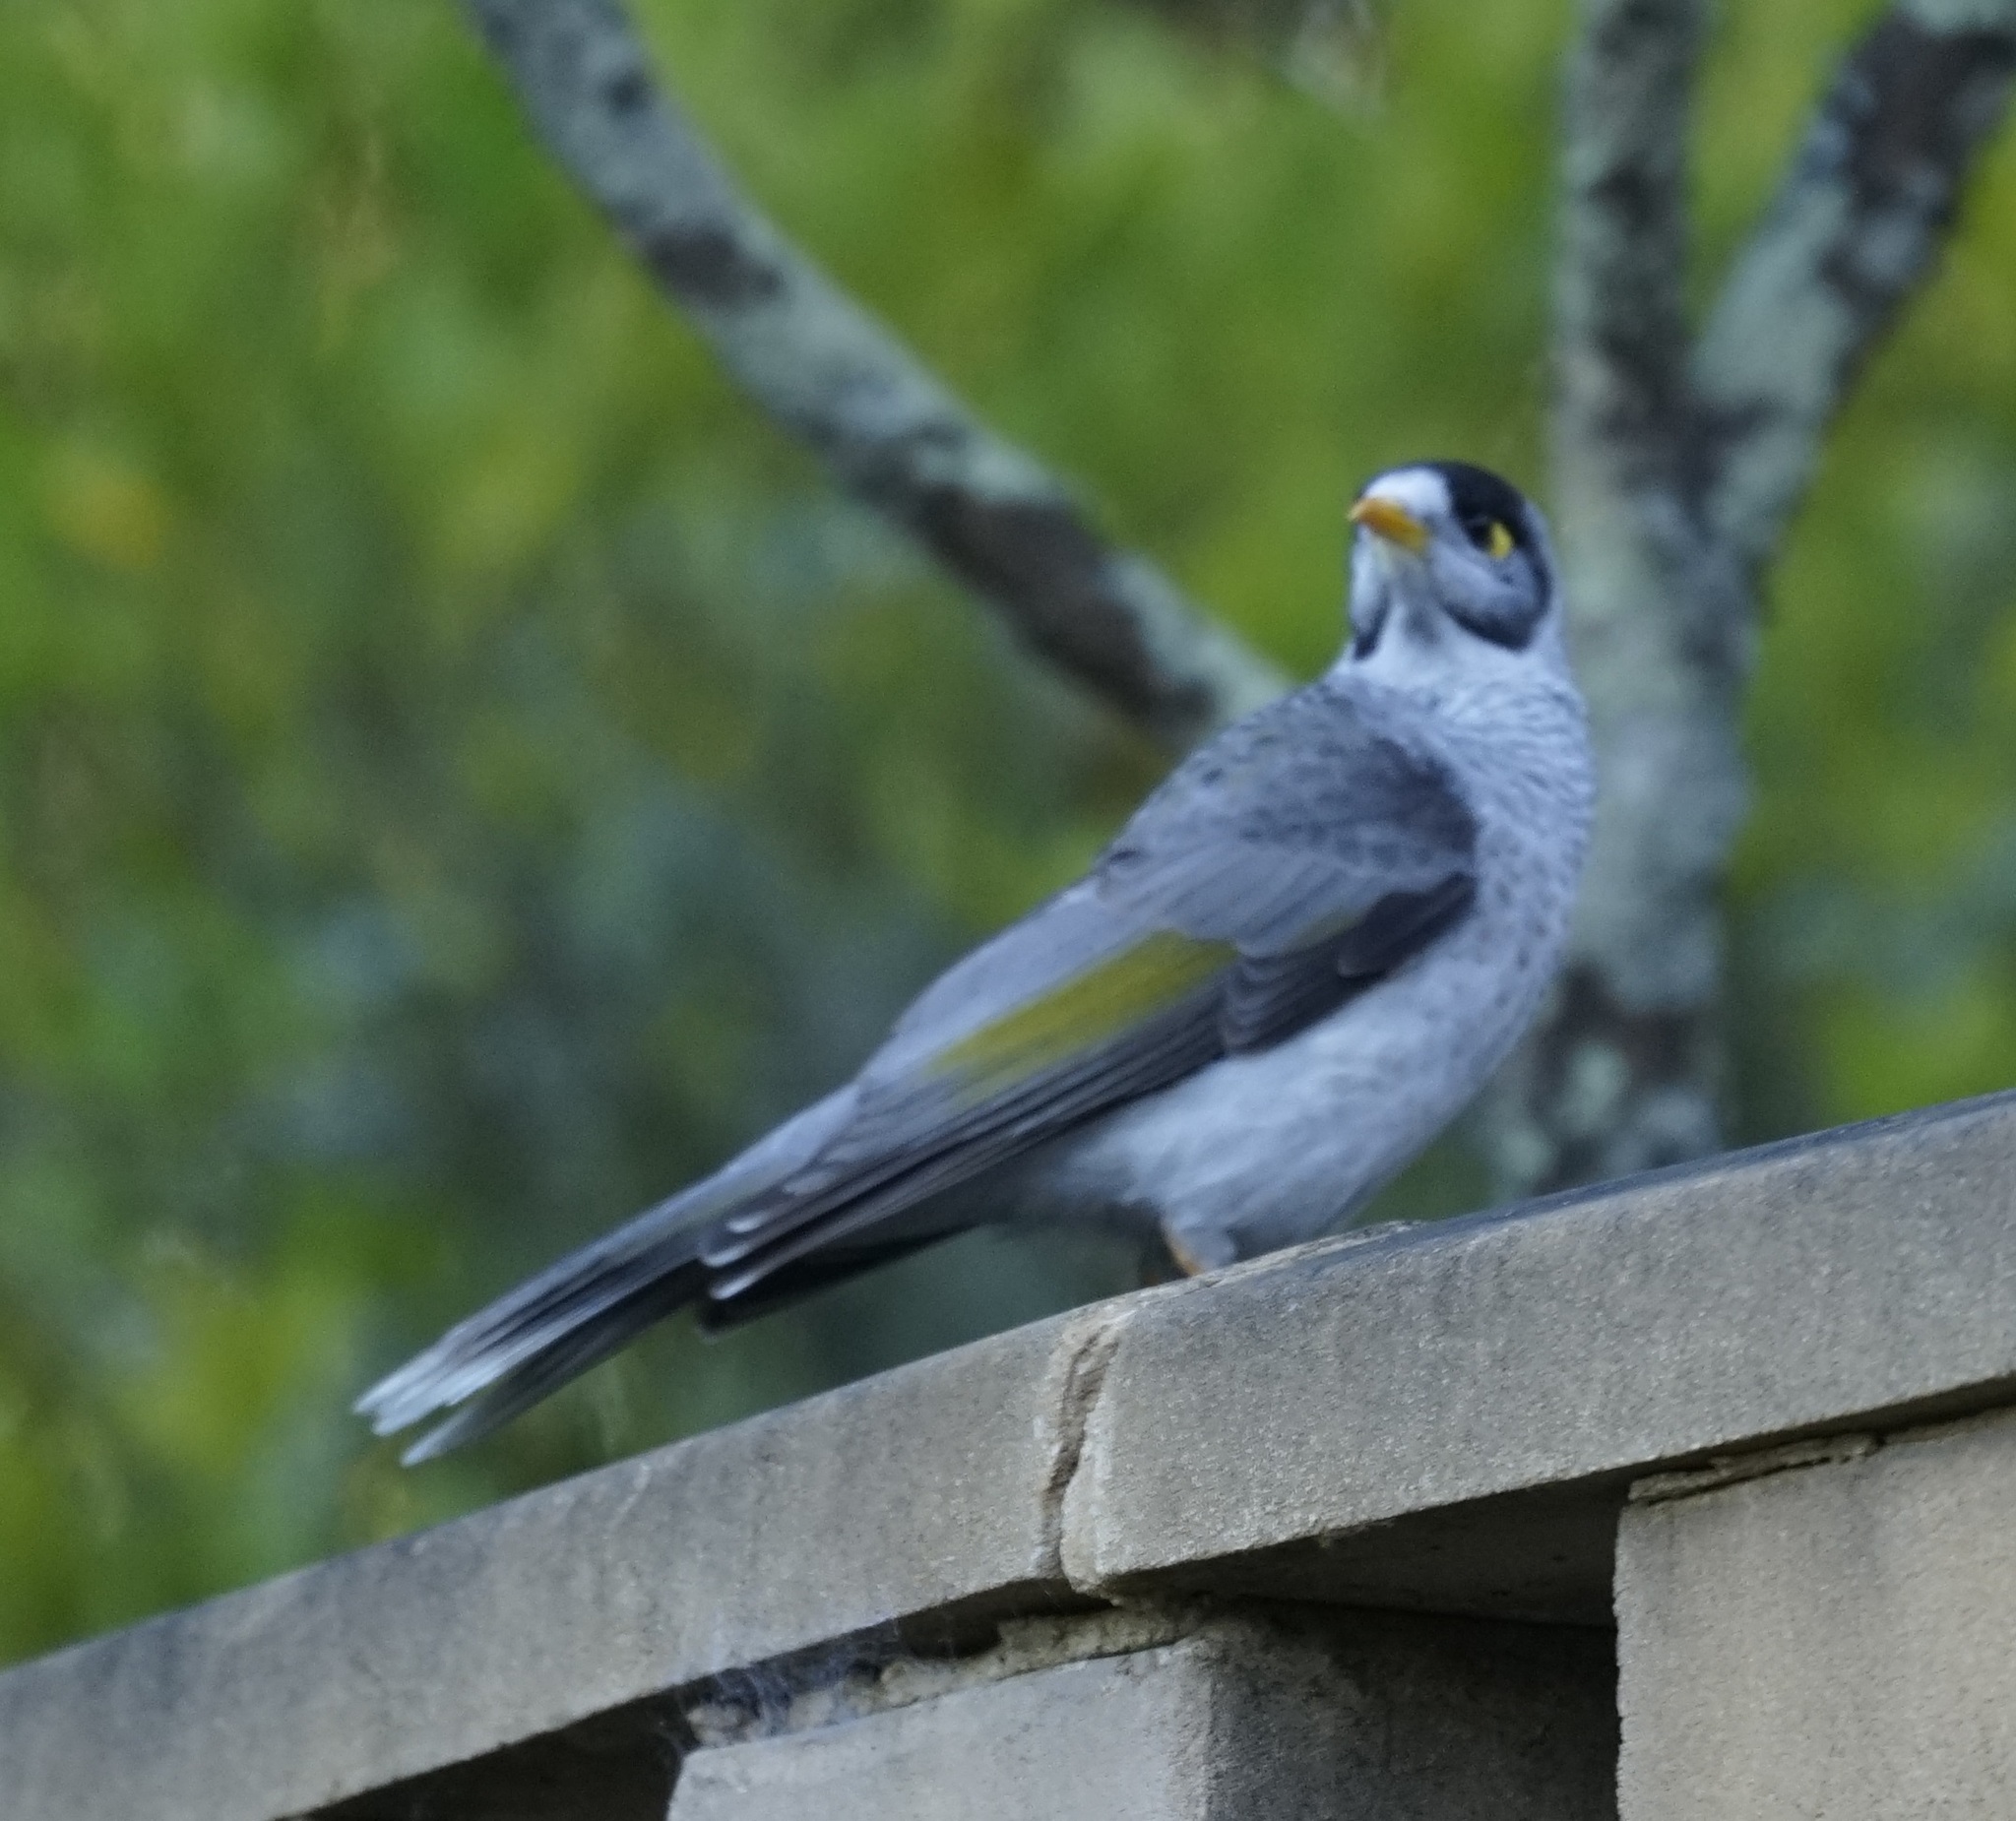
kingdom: Animalia
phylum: Chordata
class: Aves
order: Passeriformes
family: Meliphagidae
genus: Manorina
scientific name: Manorina melanocephala
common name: Noisy miner
